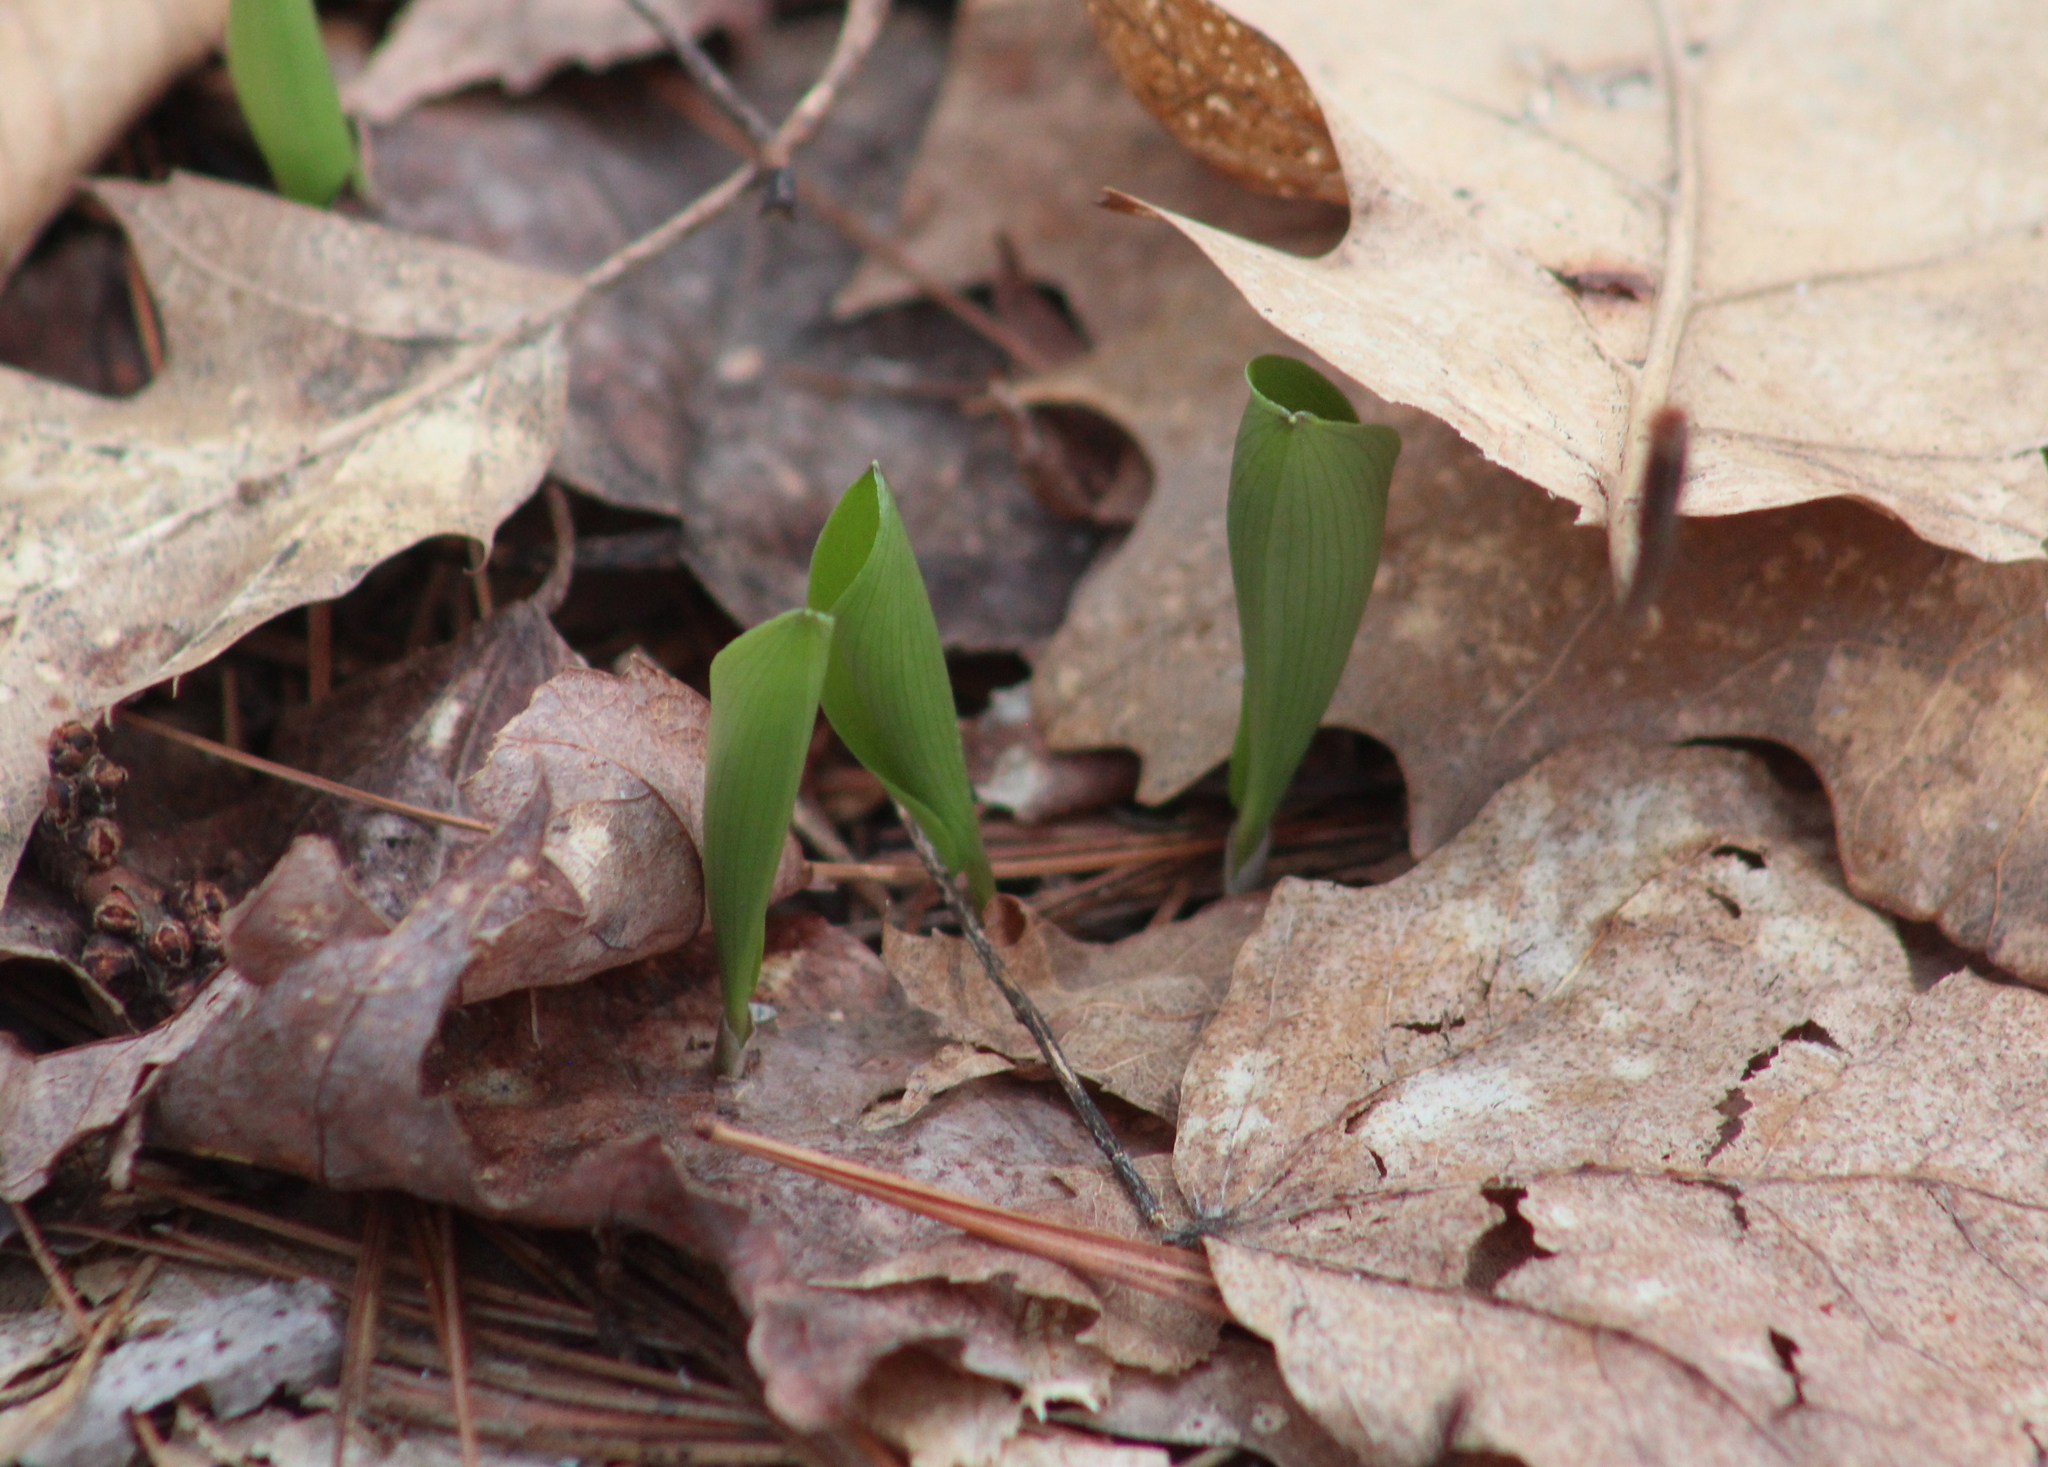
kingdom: Plantae
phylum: Tracheophyta
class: Liliopsida
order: Asparagales
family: Asparagaceae
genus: Maianthemum
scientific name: Maianthemum canadense
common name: False lily-of-the-valley
